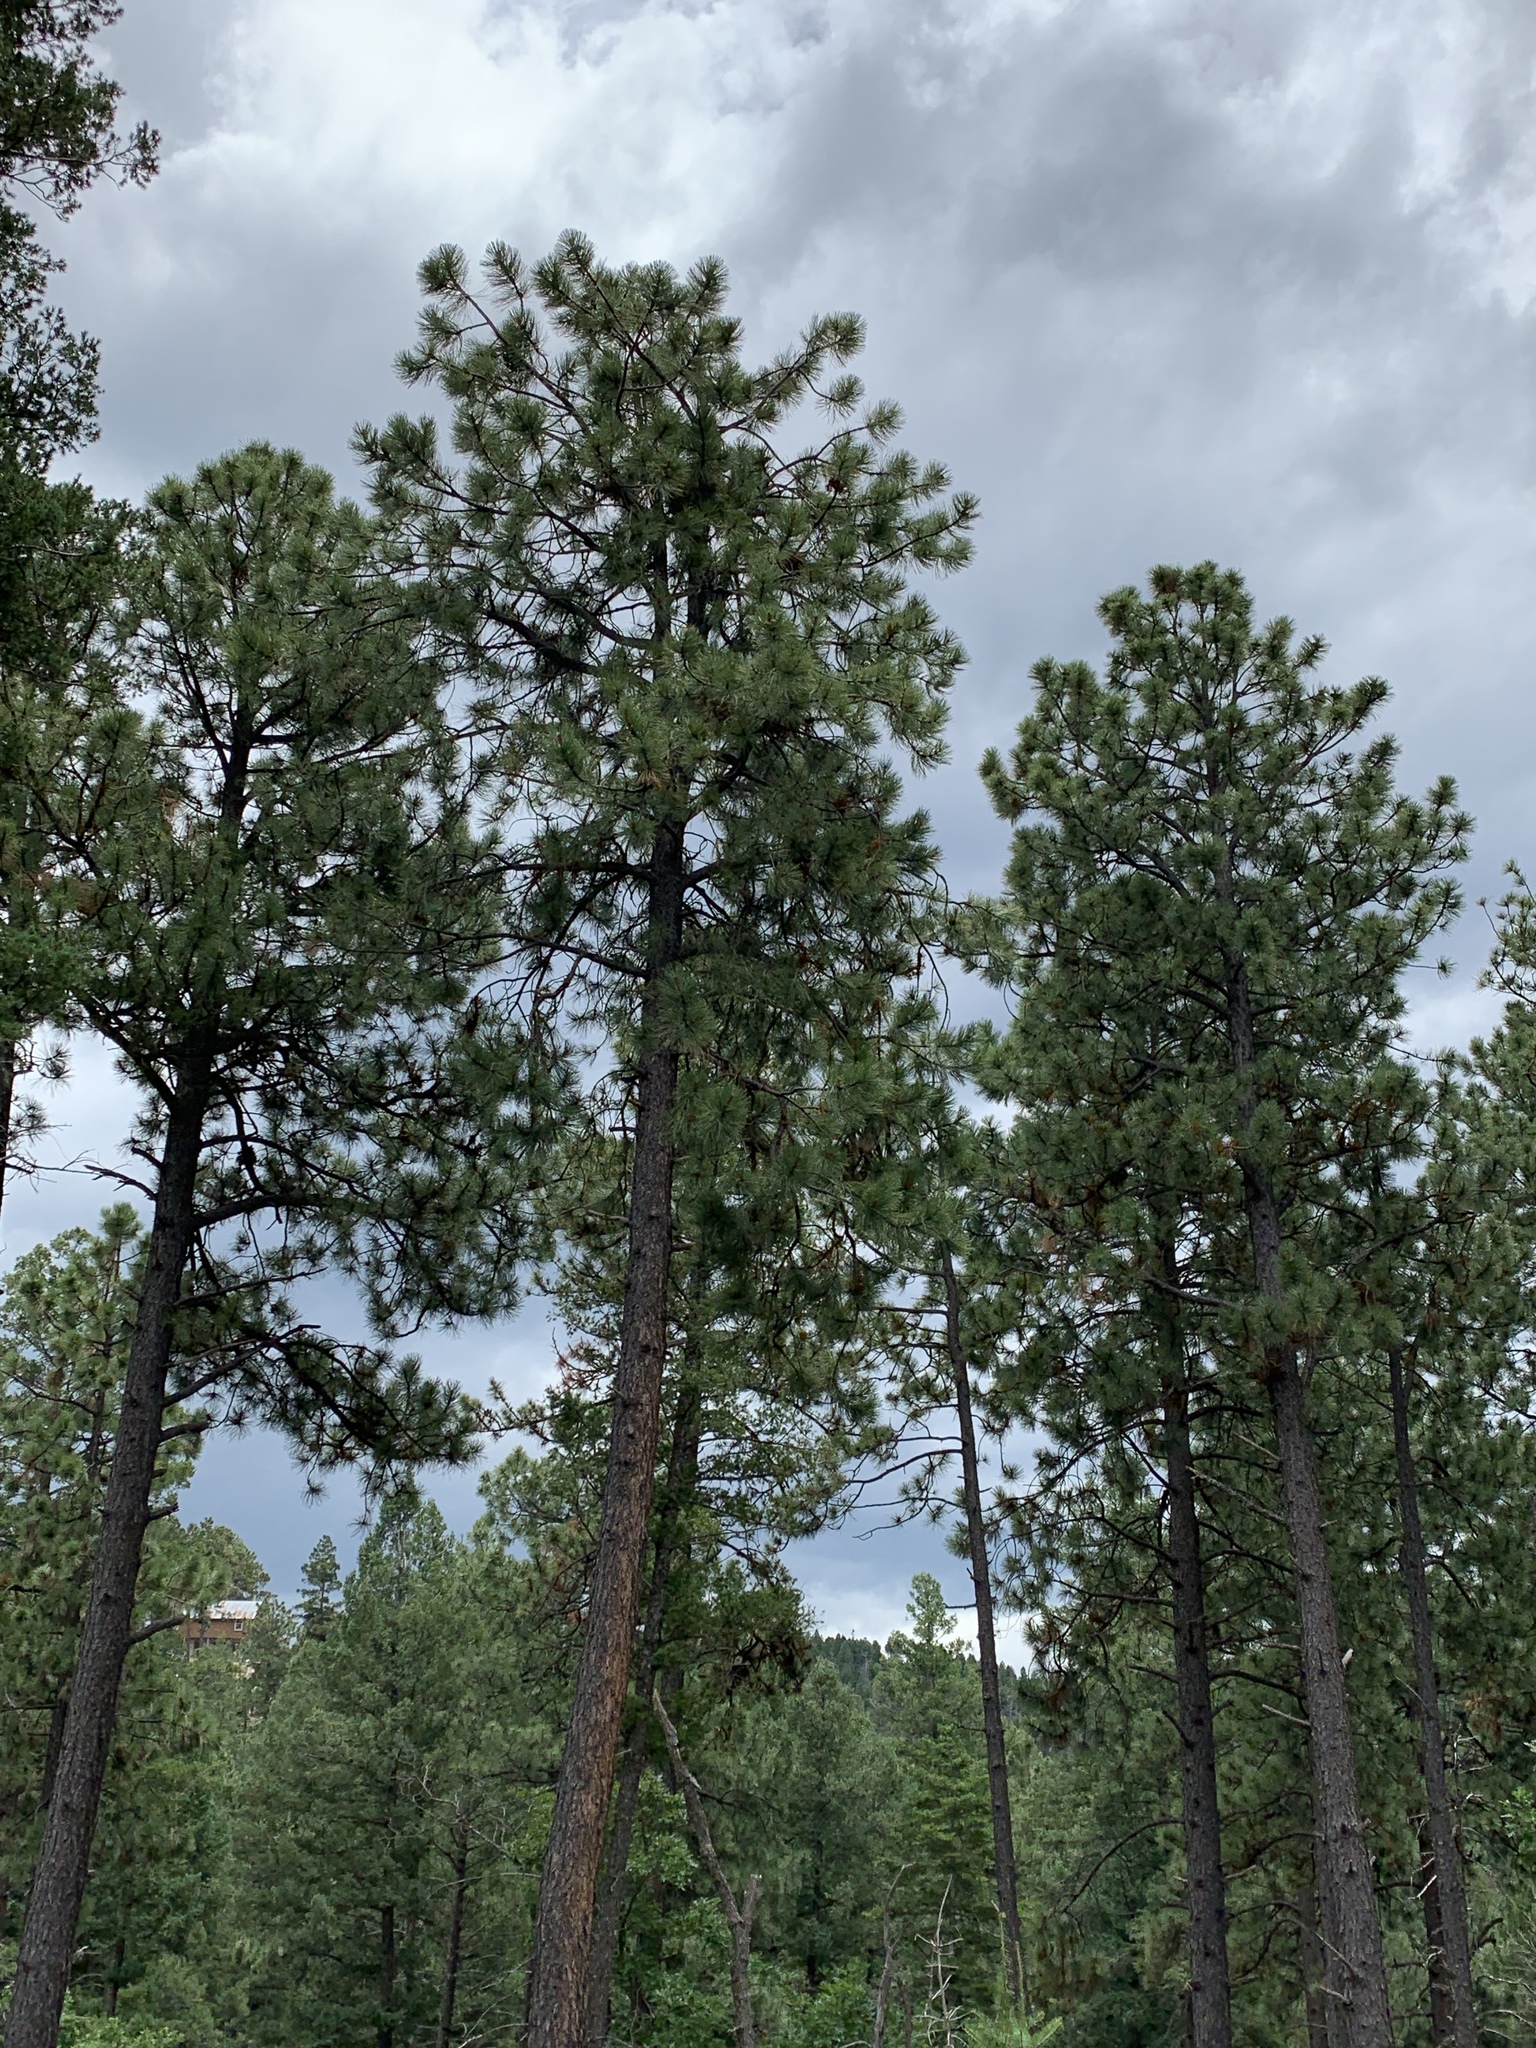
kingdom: Plantae
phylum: Tracheophyta
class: Pinopsida
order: Pinales
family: Pinaceae
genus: Pinus
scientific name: Pinus ponderosa
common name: Western yellow-pine
